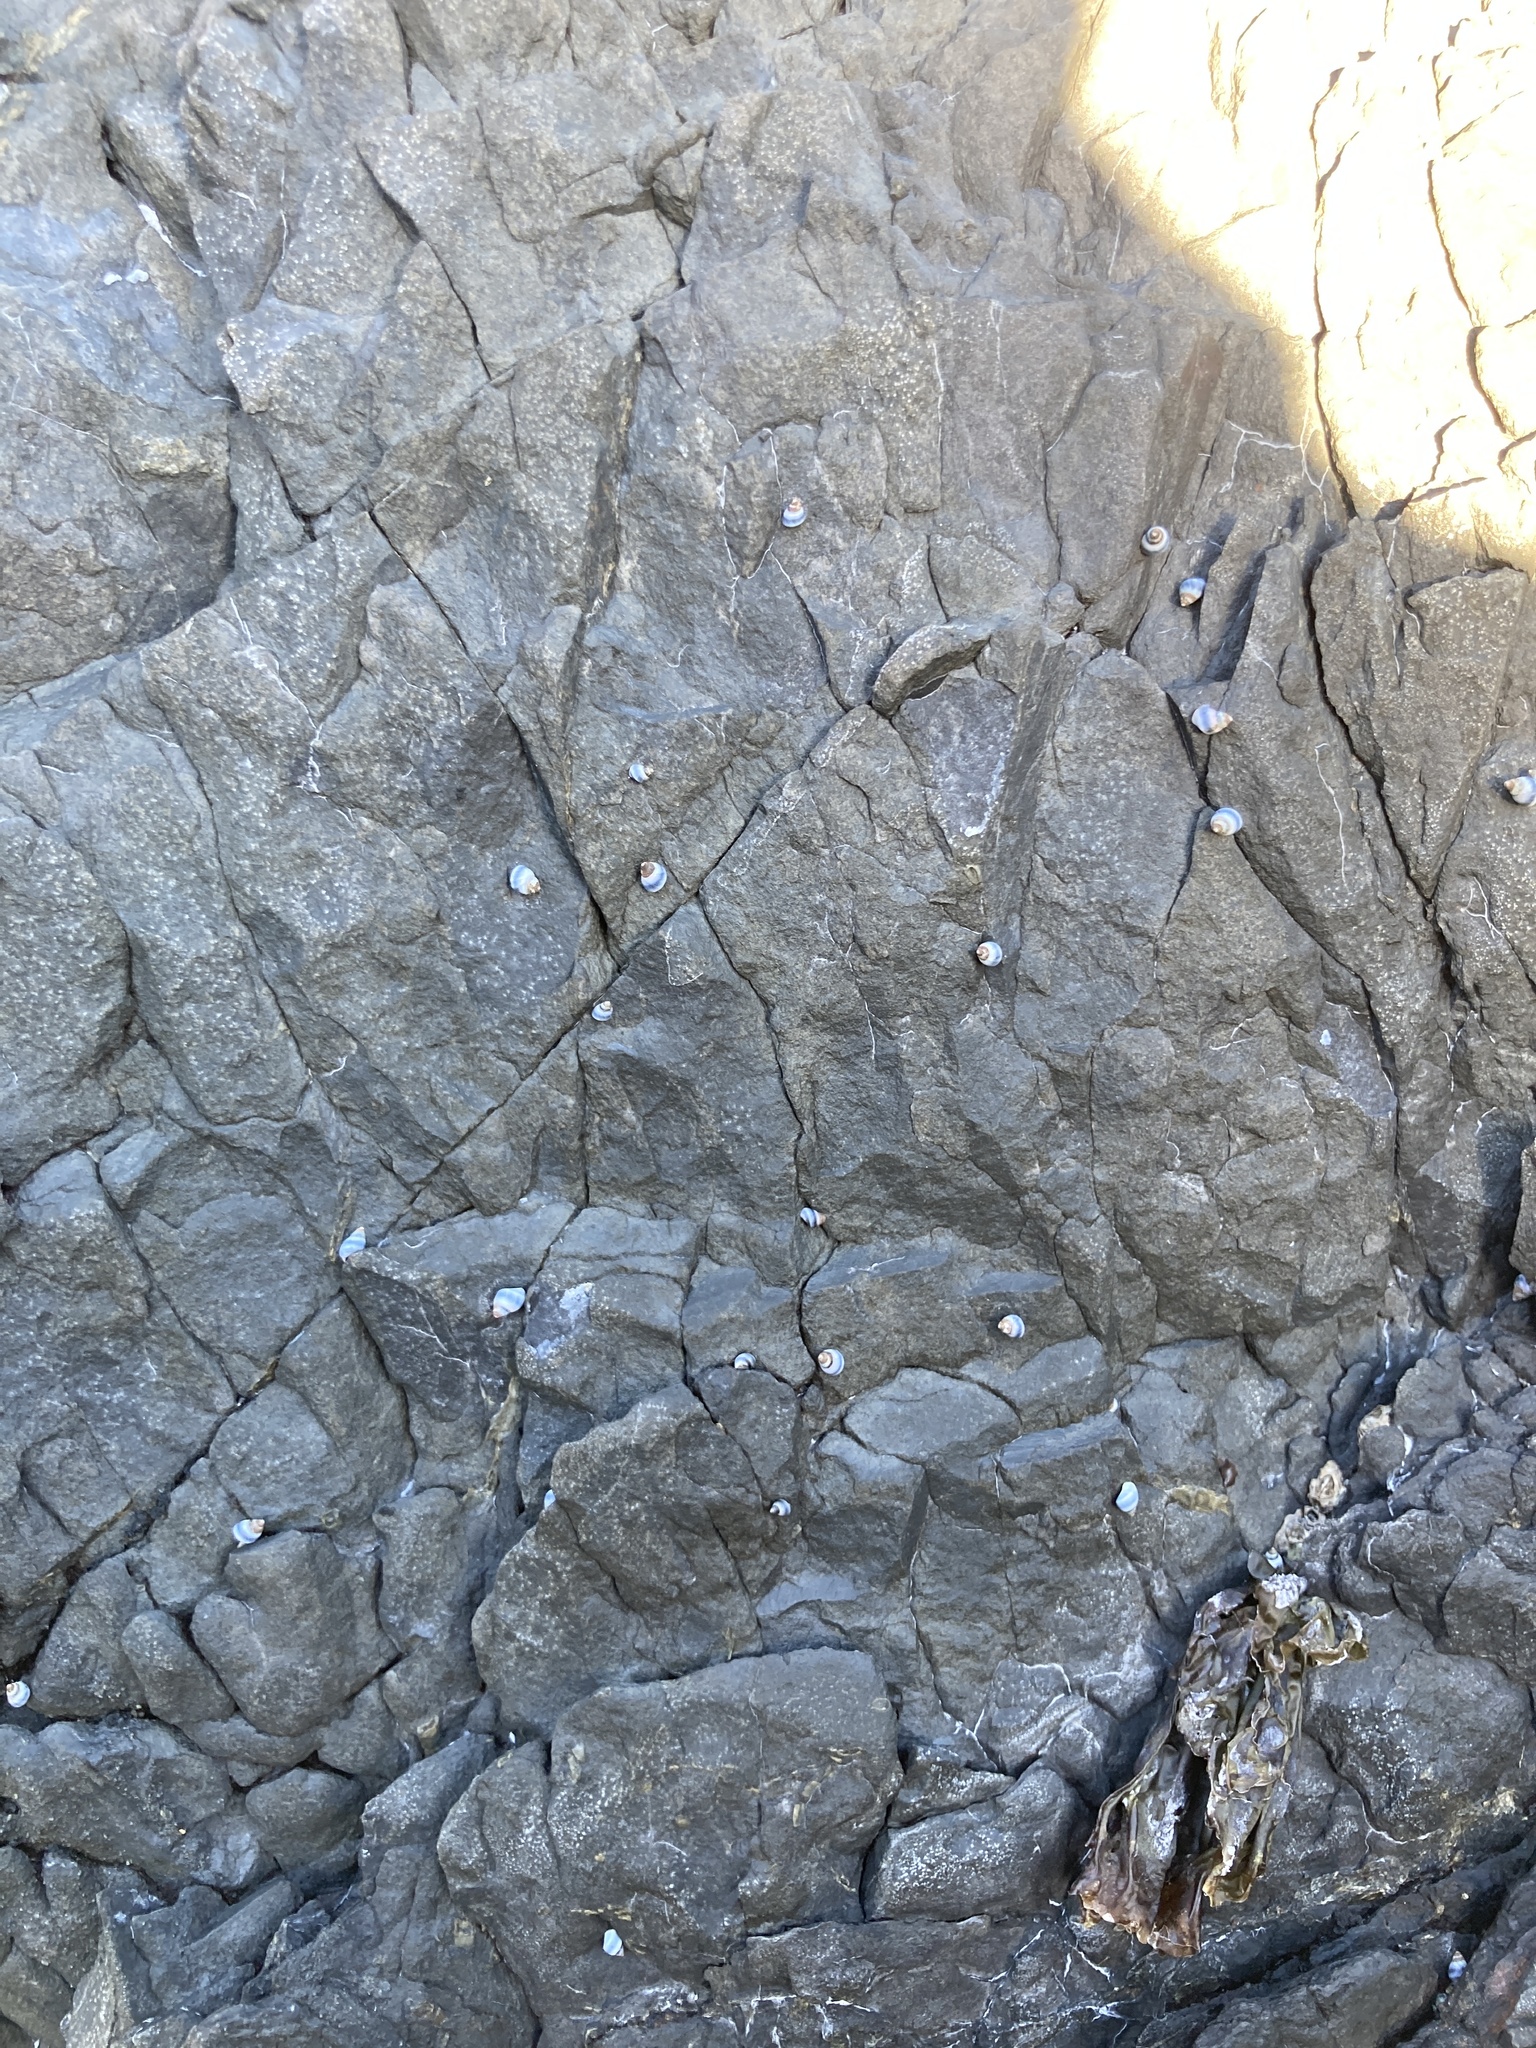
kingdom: Animalia
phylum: Mollusca
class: Gastropoda
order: Littorinimorpha
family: Littorinidae
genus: Austrolittorina
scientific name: Austrolittorina antipodum
